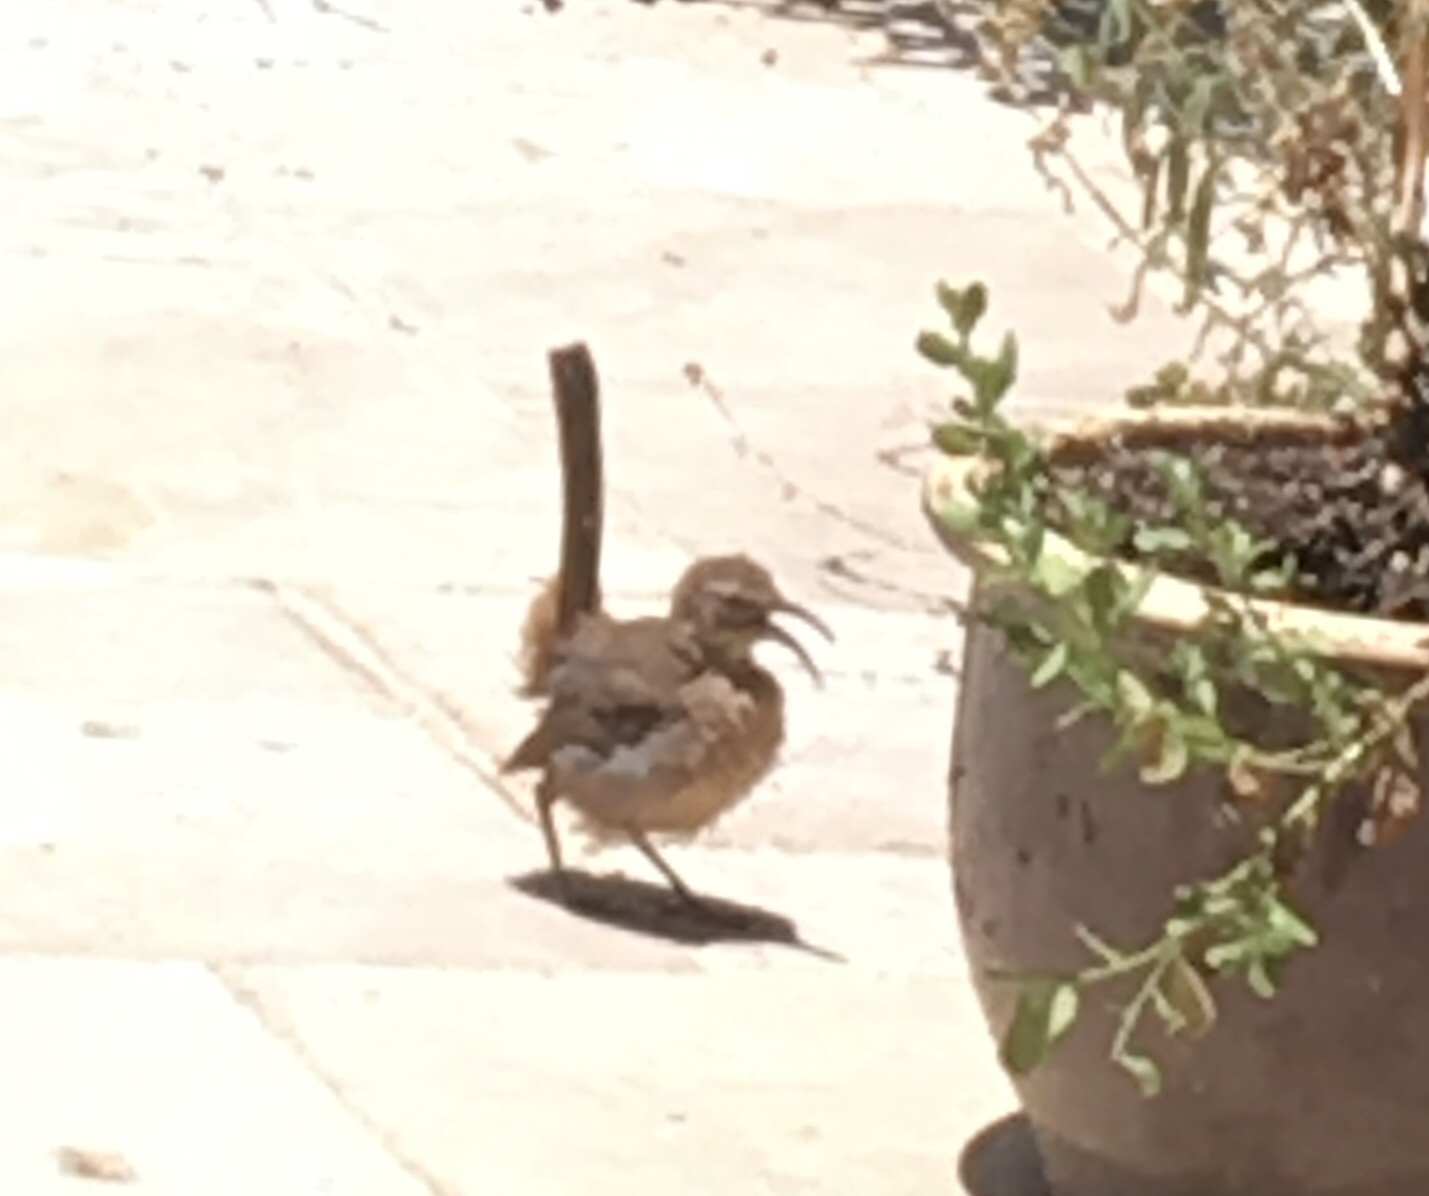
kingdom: Animalia
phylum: Chordata
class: Aves
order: Passeriformes
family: Mimidae
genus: Toxostoma
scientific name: Toxostoma redivivum
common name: California thrasher
